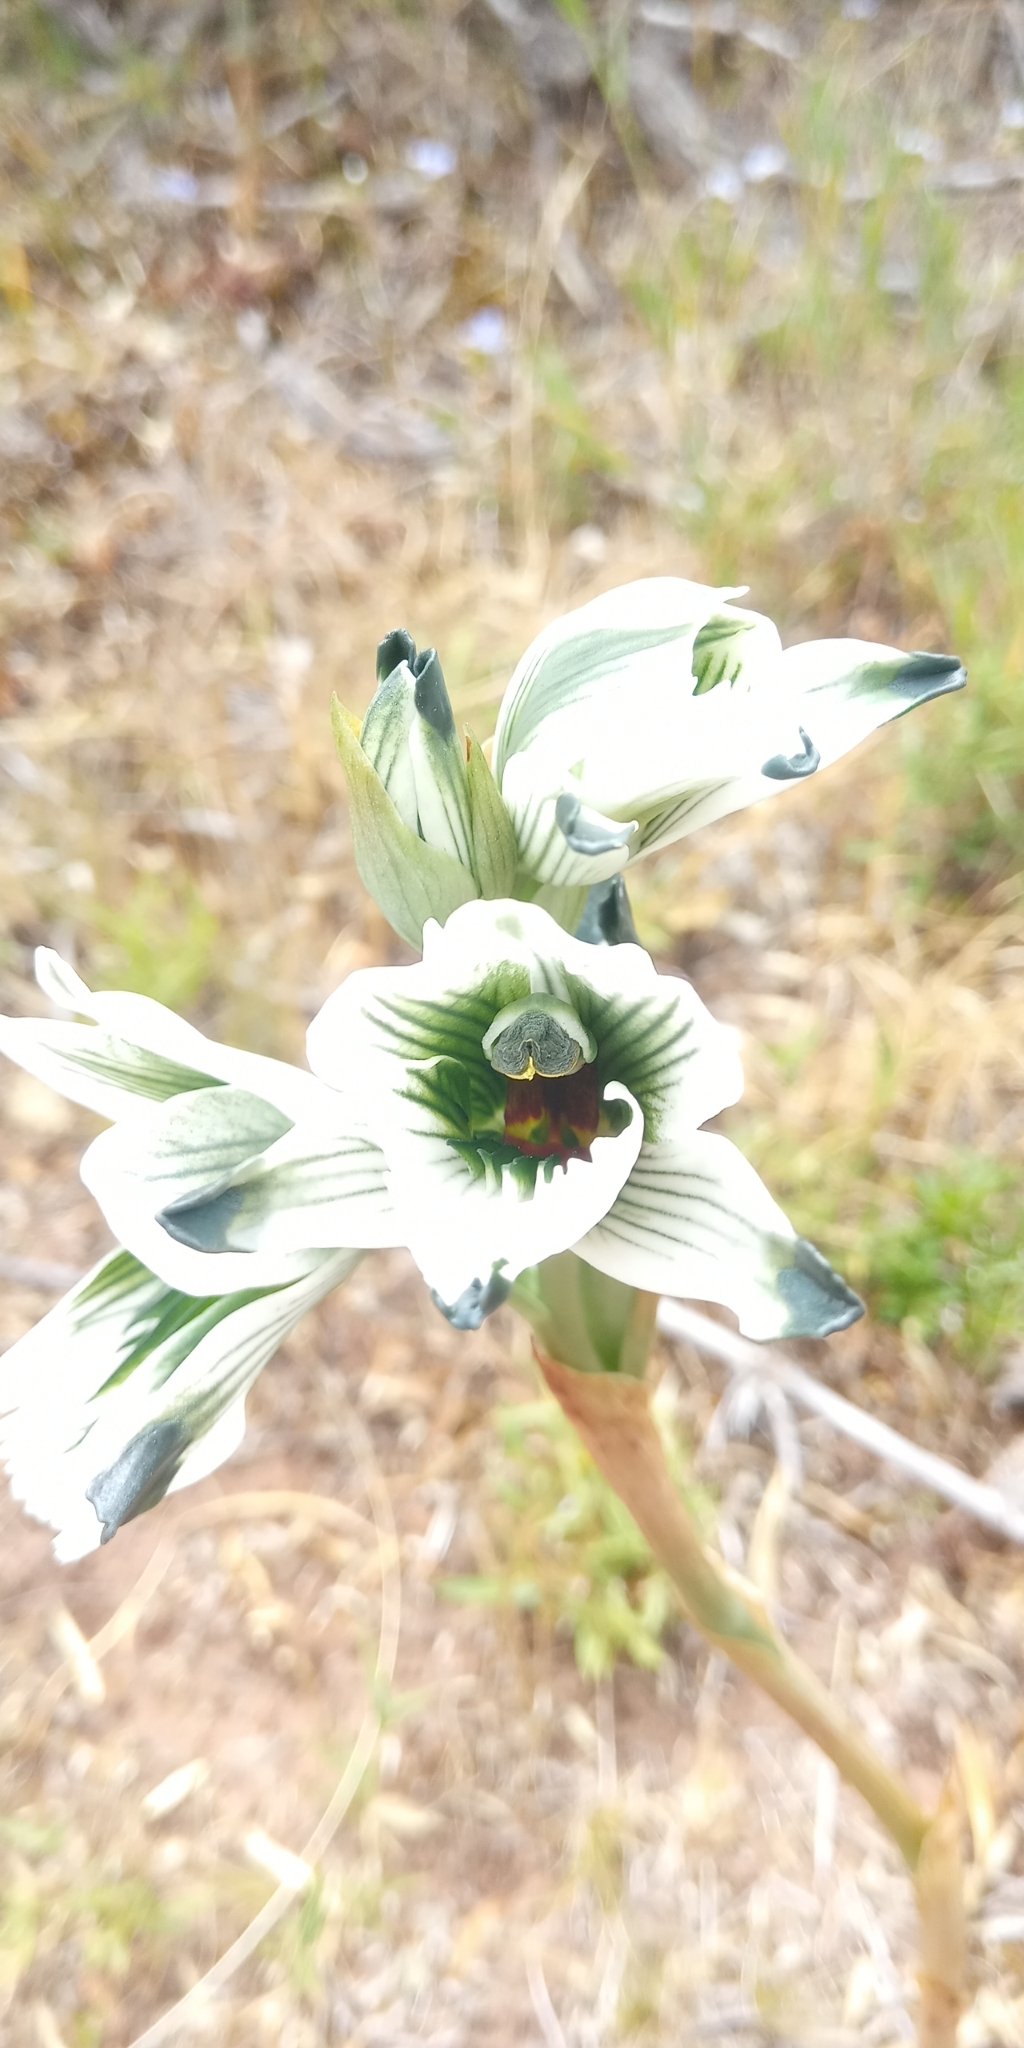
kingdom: Plantae
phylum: Tracheophyta
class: Liliopsida
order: Asparagales
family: Orchidaceae
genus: Chloraea
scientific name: Chloraea bletioides
